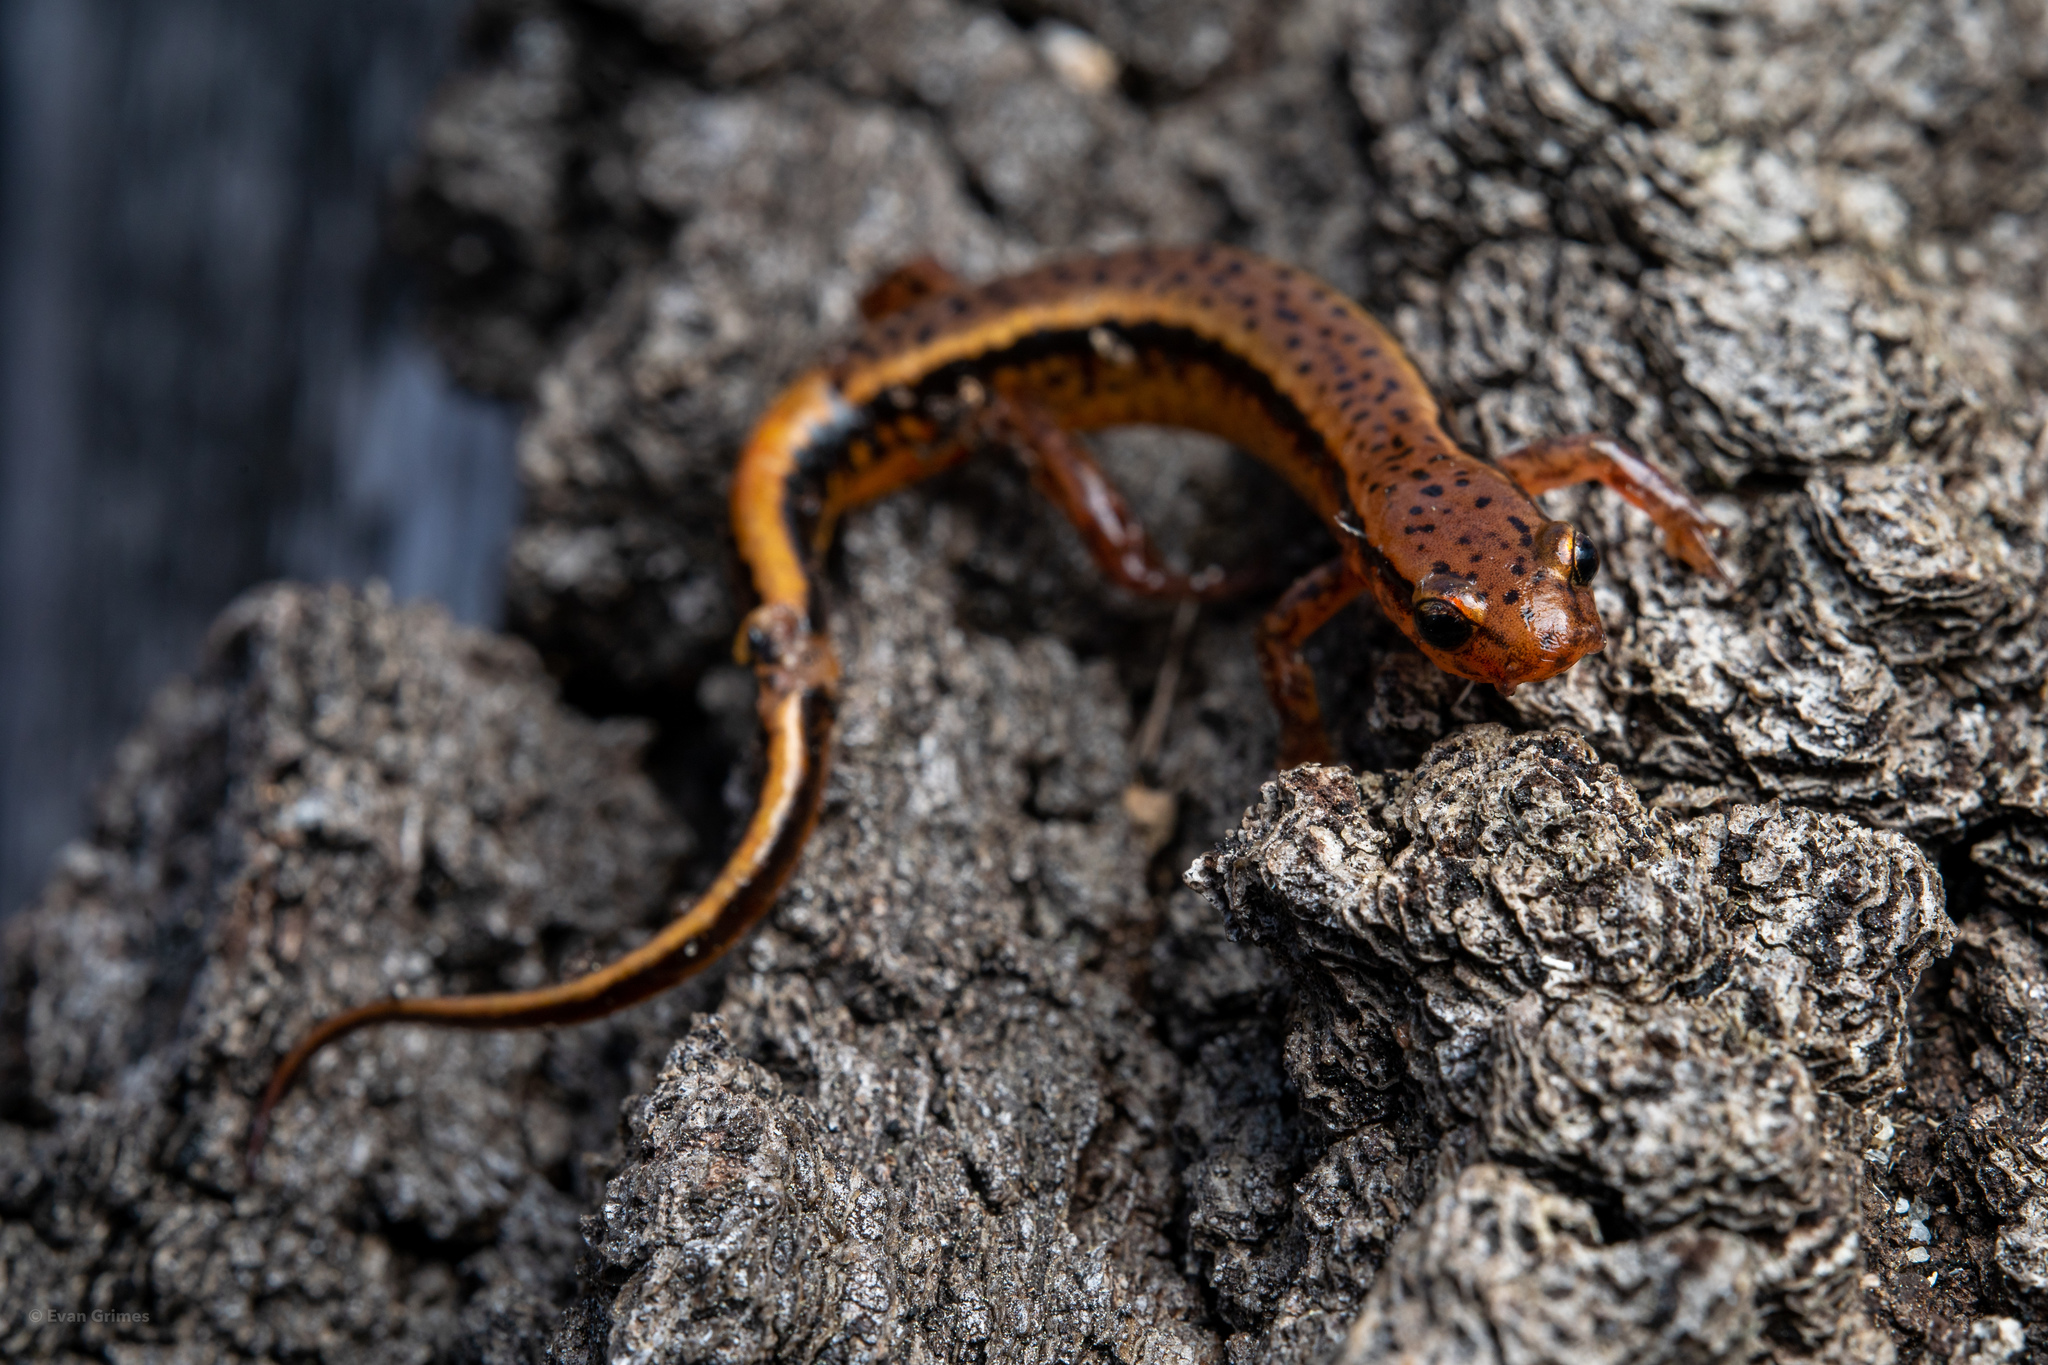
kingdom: Animalia
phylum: Chordata
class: Amphibia
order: Caudata
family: Plethodontidae
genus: Eurycea
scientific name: Eurycea cirrigera
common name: Southern two-lined salamander
